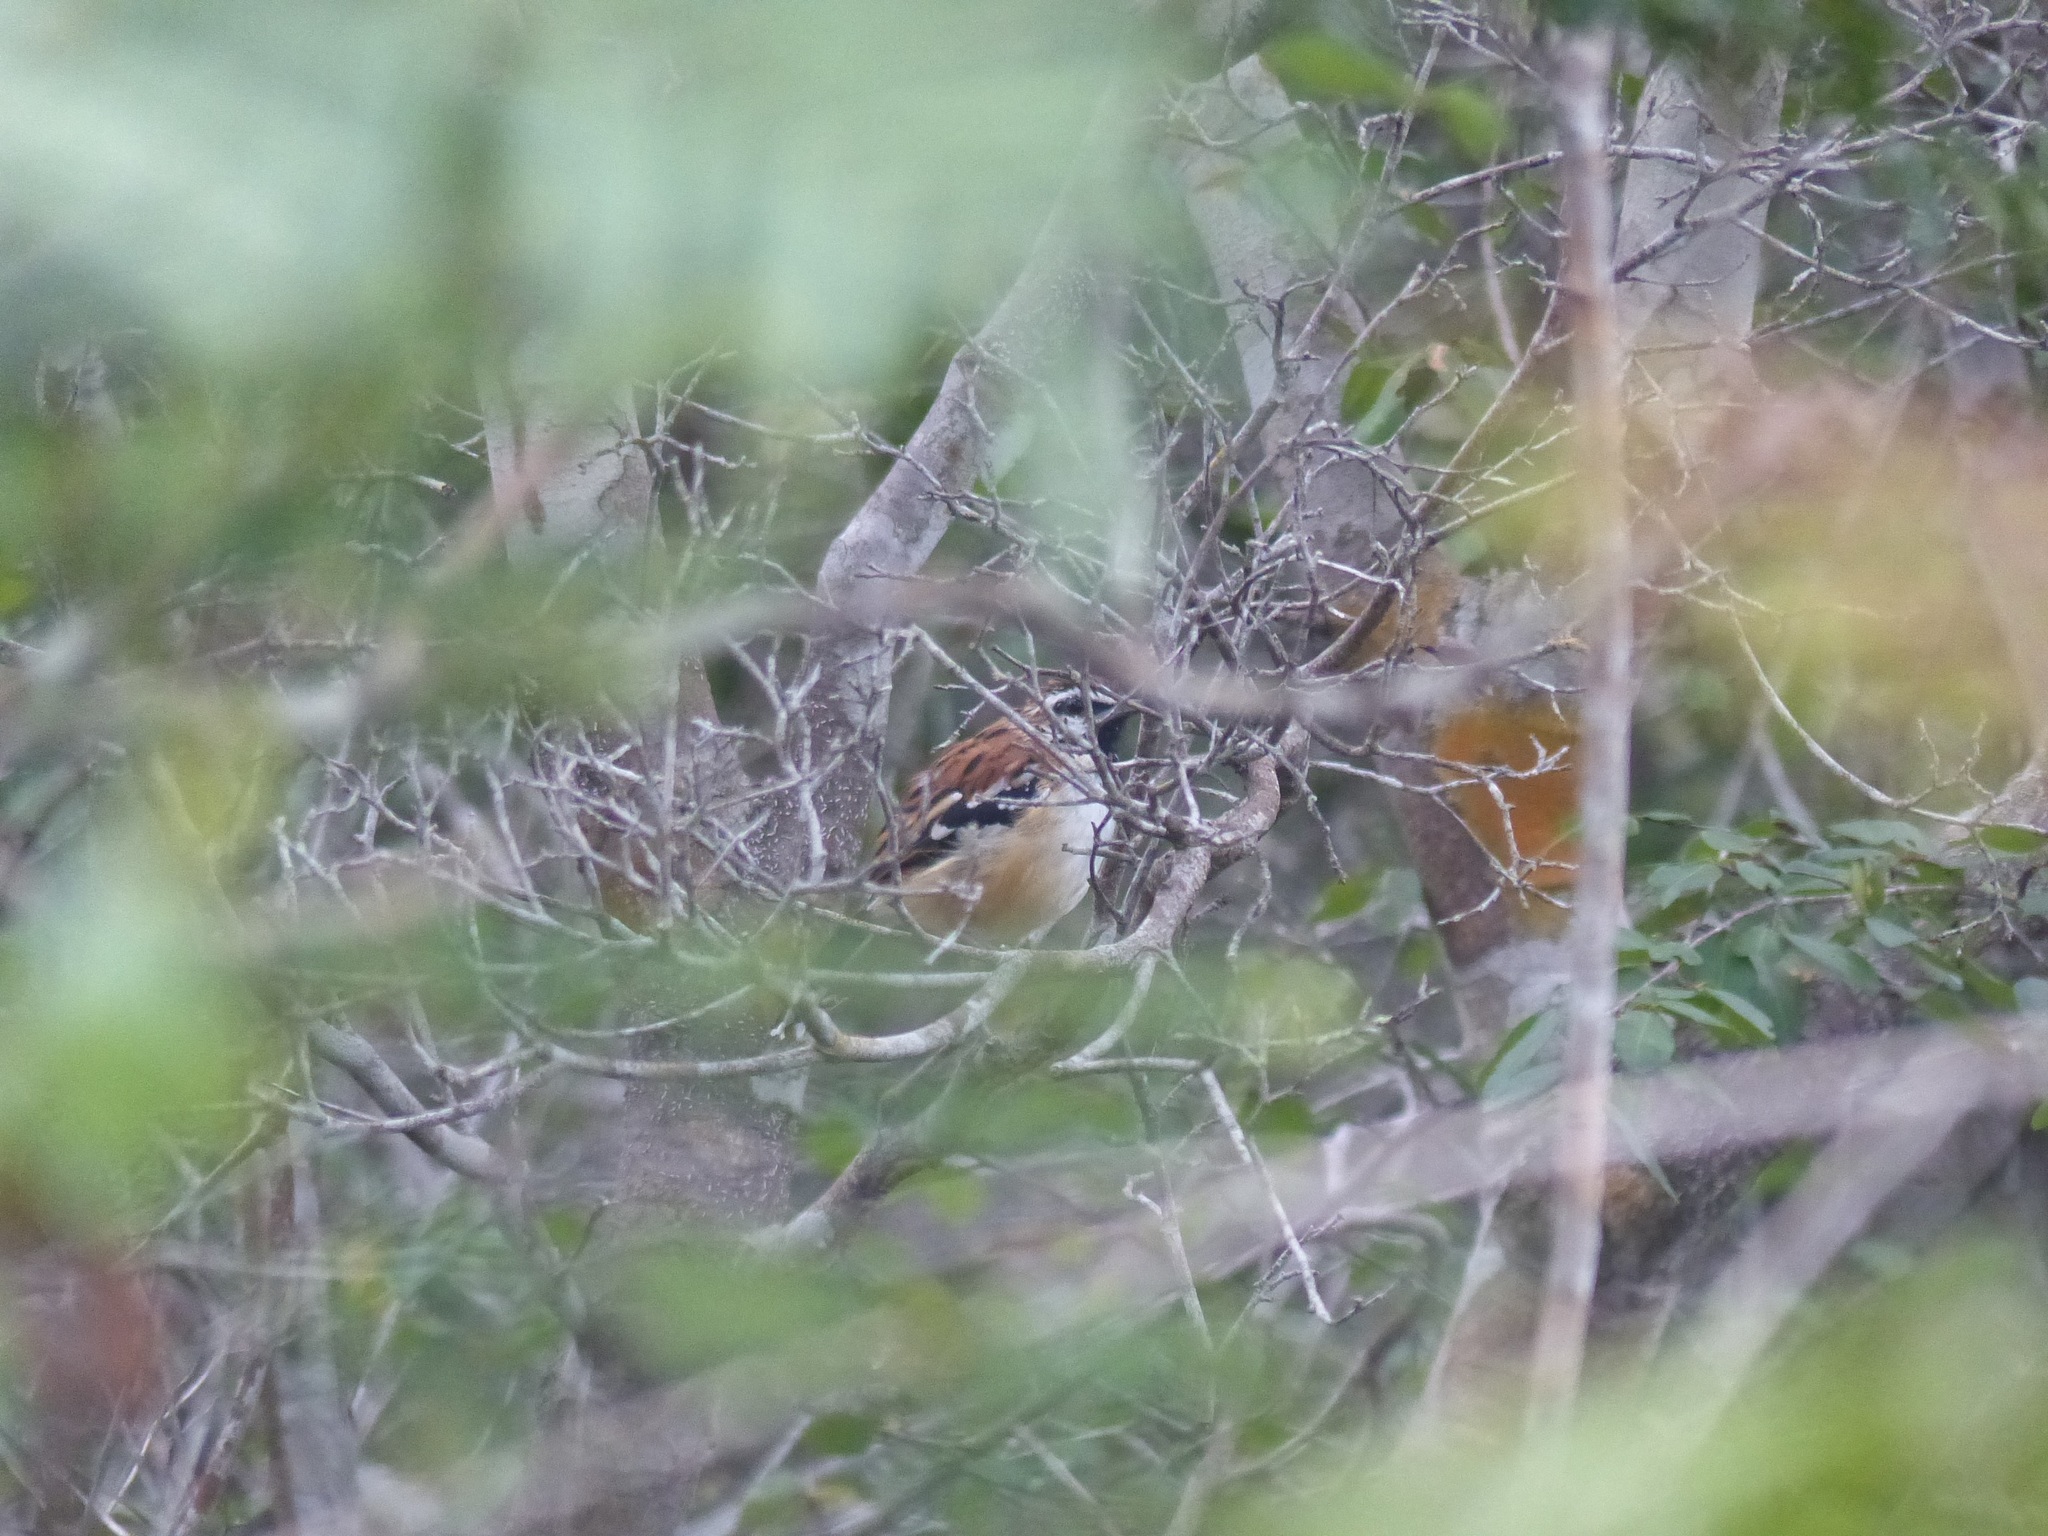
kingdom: Animalia
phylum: Chordata
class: Aves
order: Passeriformes
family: Thamnophilidae
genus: Myrmorchilus
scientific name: Myrmorchilus strigilatus
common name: Stripe-backed antbird
